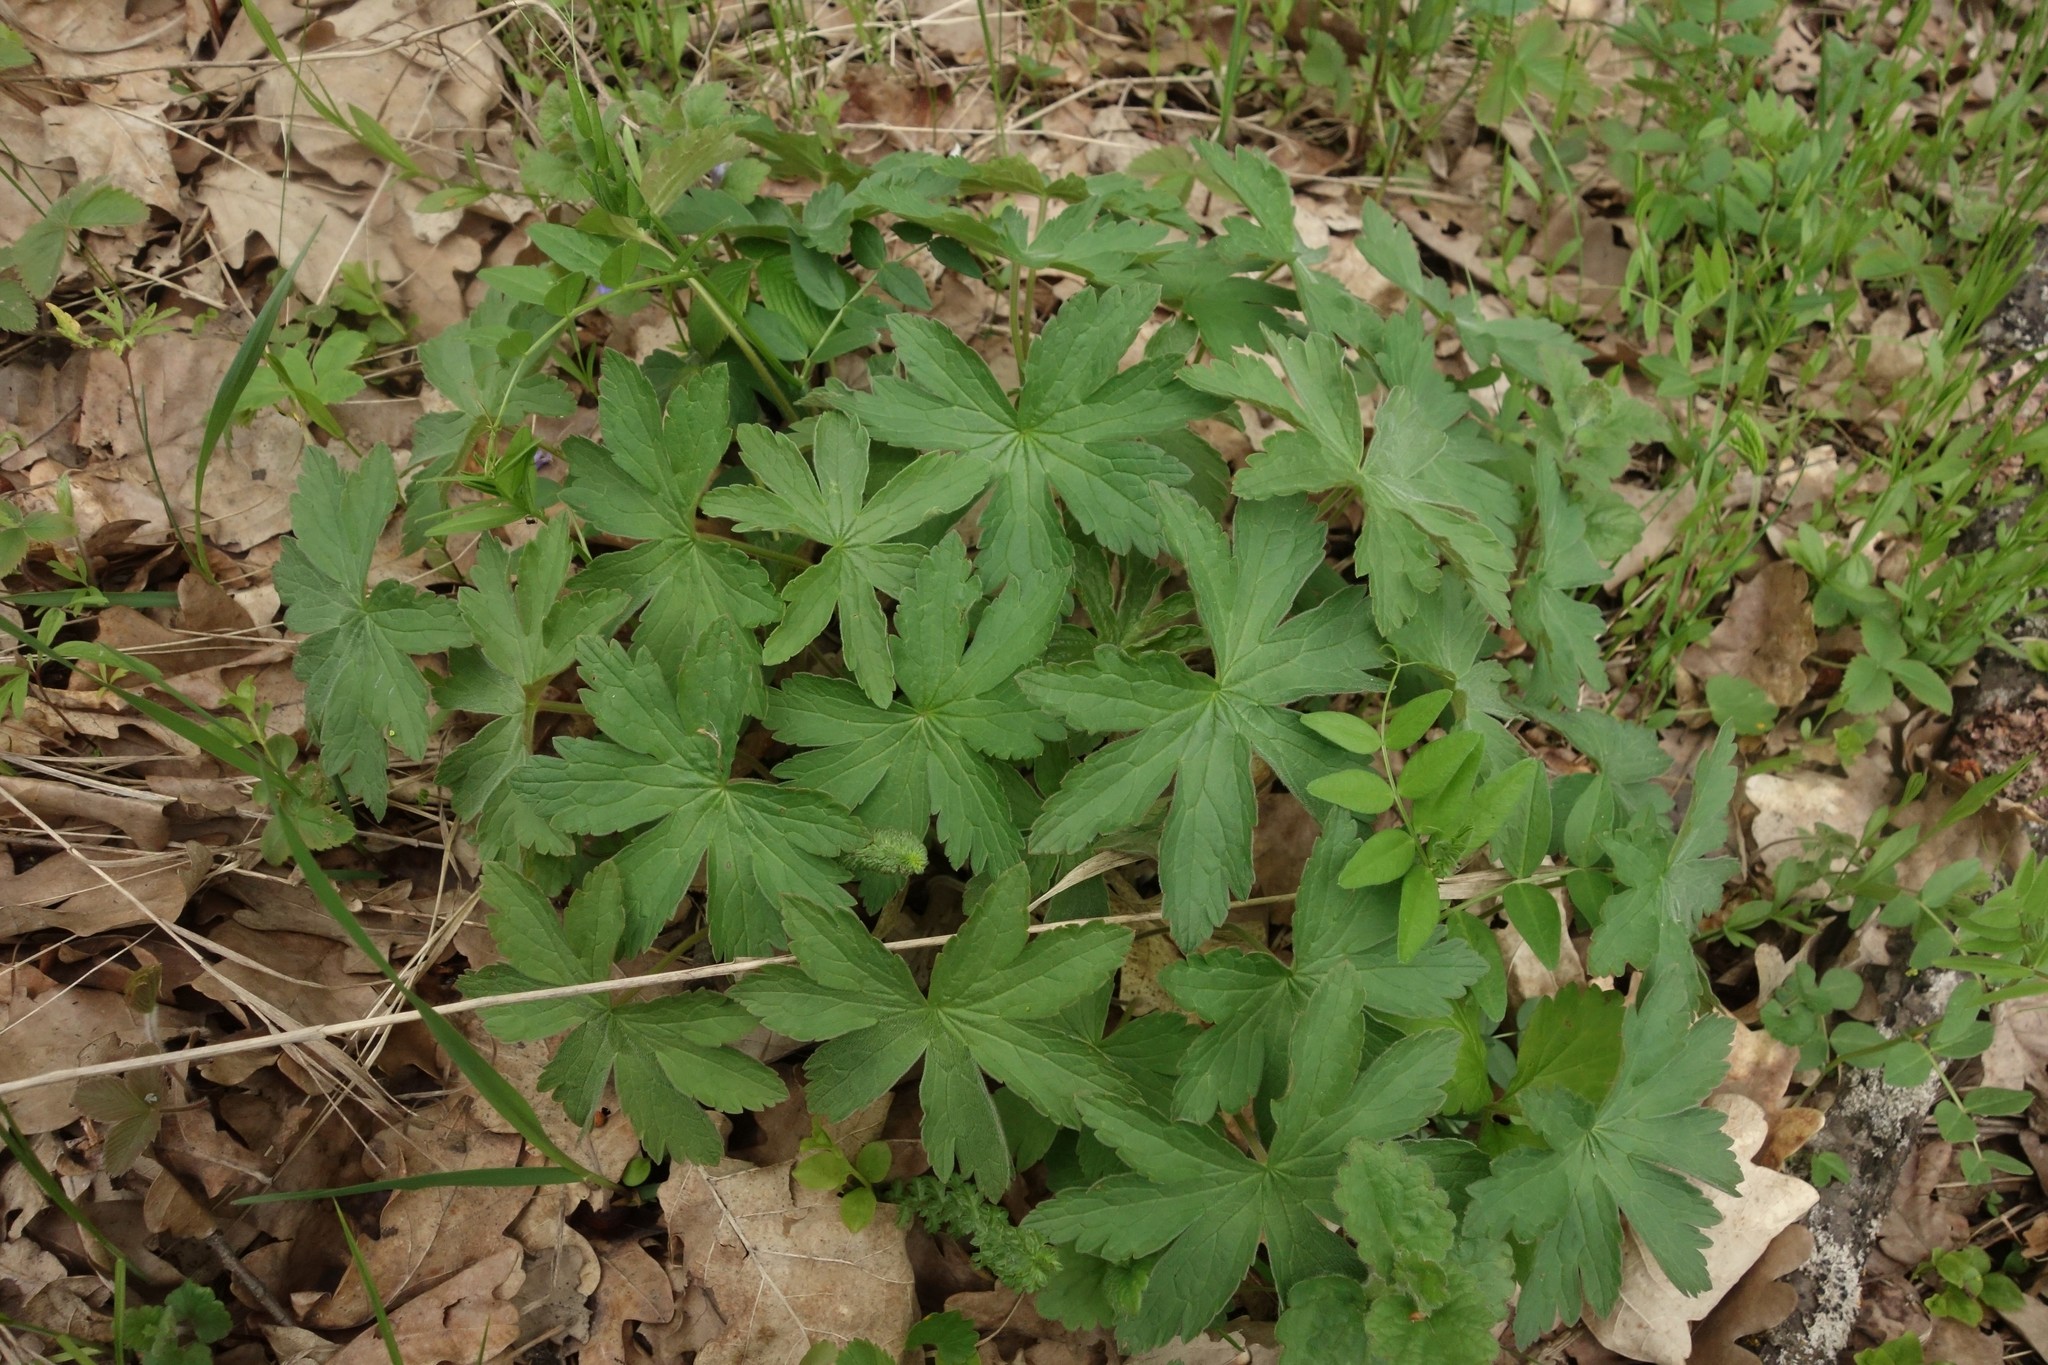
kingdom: Plantae
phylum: Tracheophyta
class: Magnoliopsida
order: Geraniales
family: Geraniaceae
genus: Geranium
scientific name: Geranium sylvaticum
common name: Wood crane's-bill
